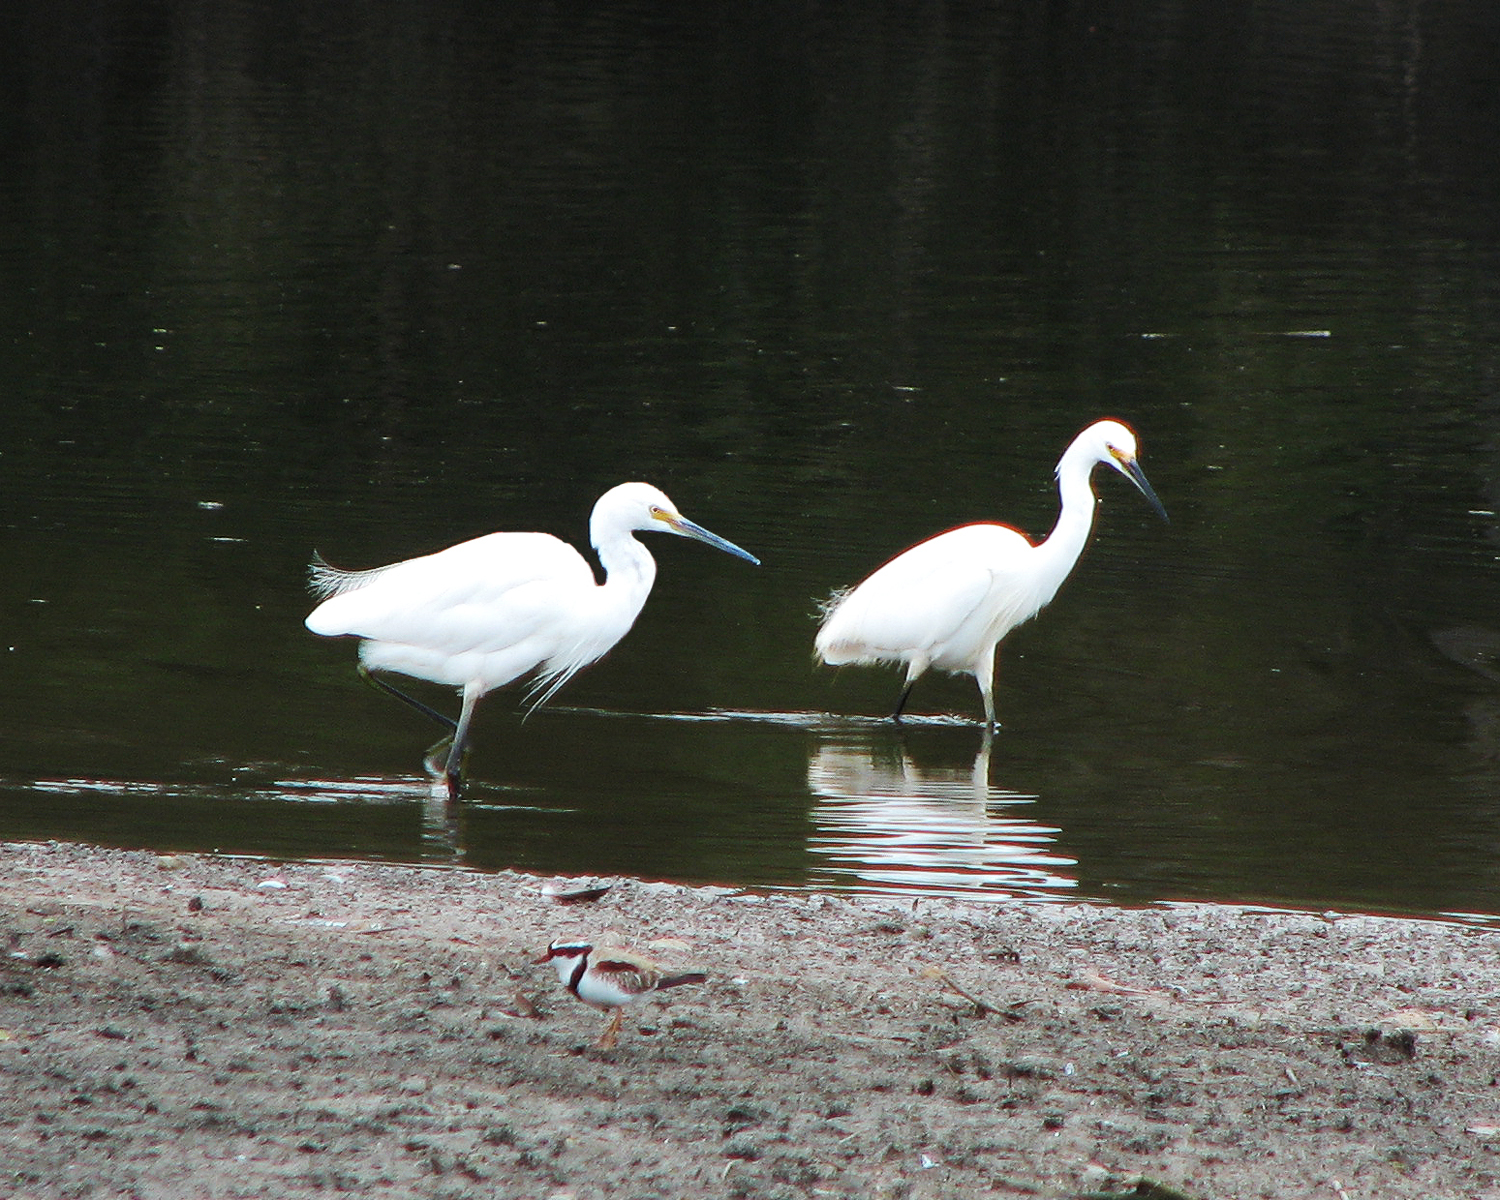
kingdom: Animalia
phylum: Chordata
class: Aves
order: Pelecaniformes
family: Ardeidae
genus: Egretta
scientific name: Egretta garzetta
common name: Little egret
